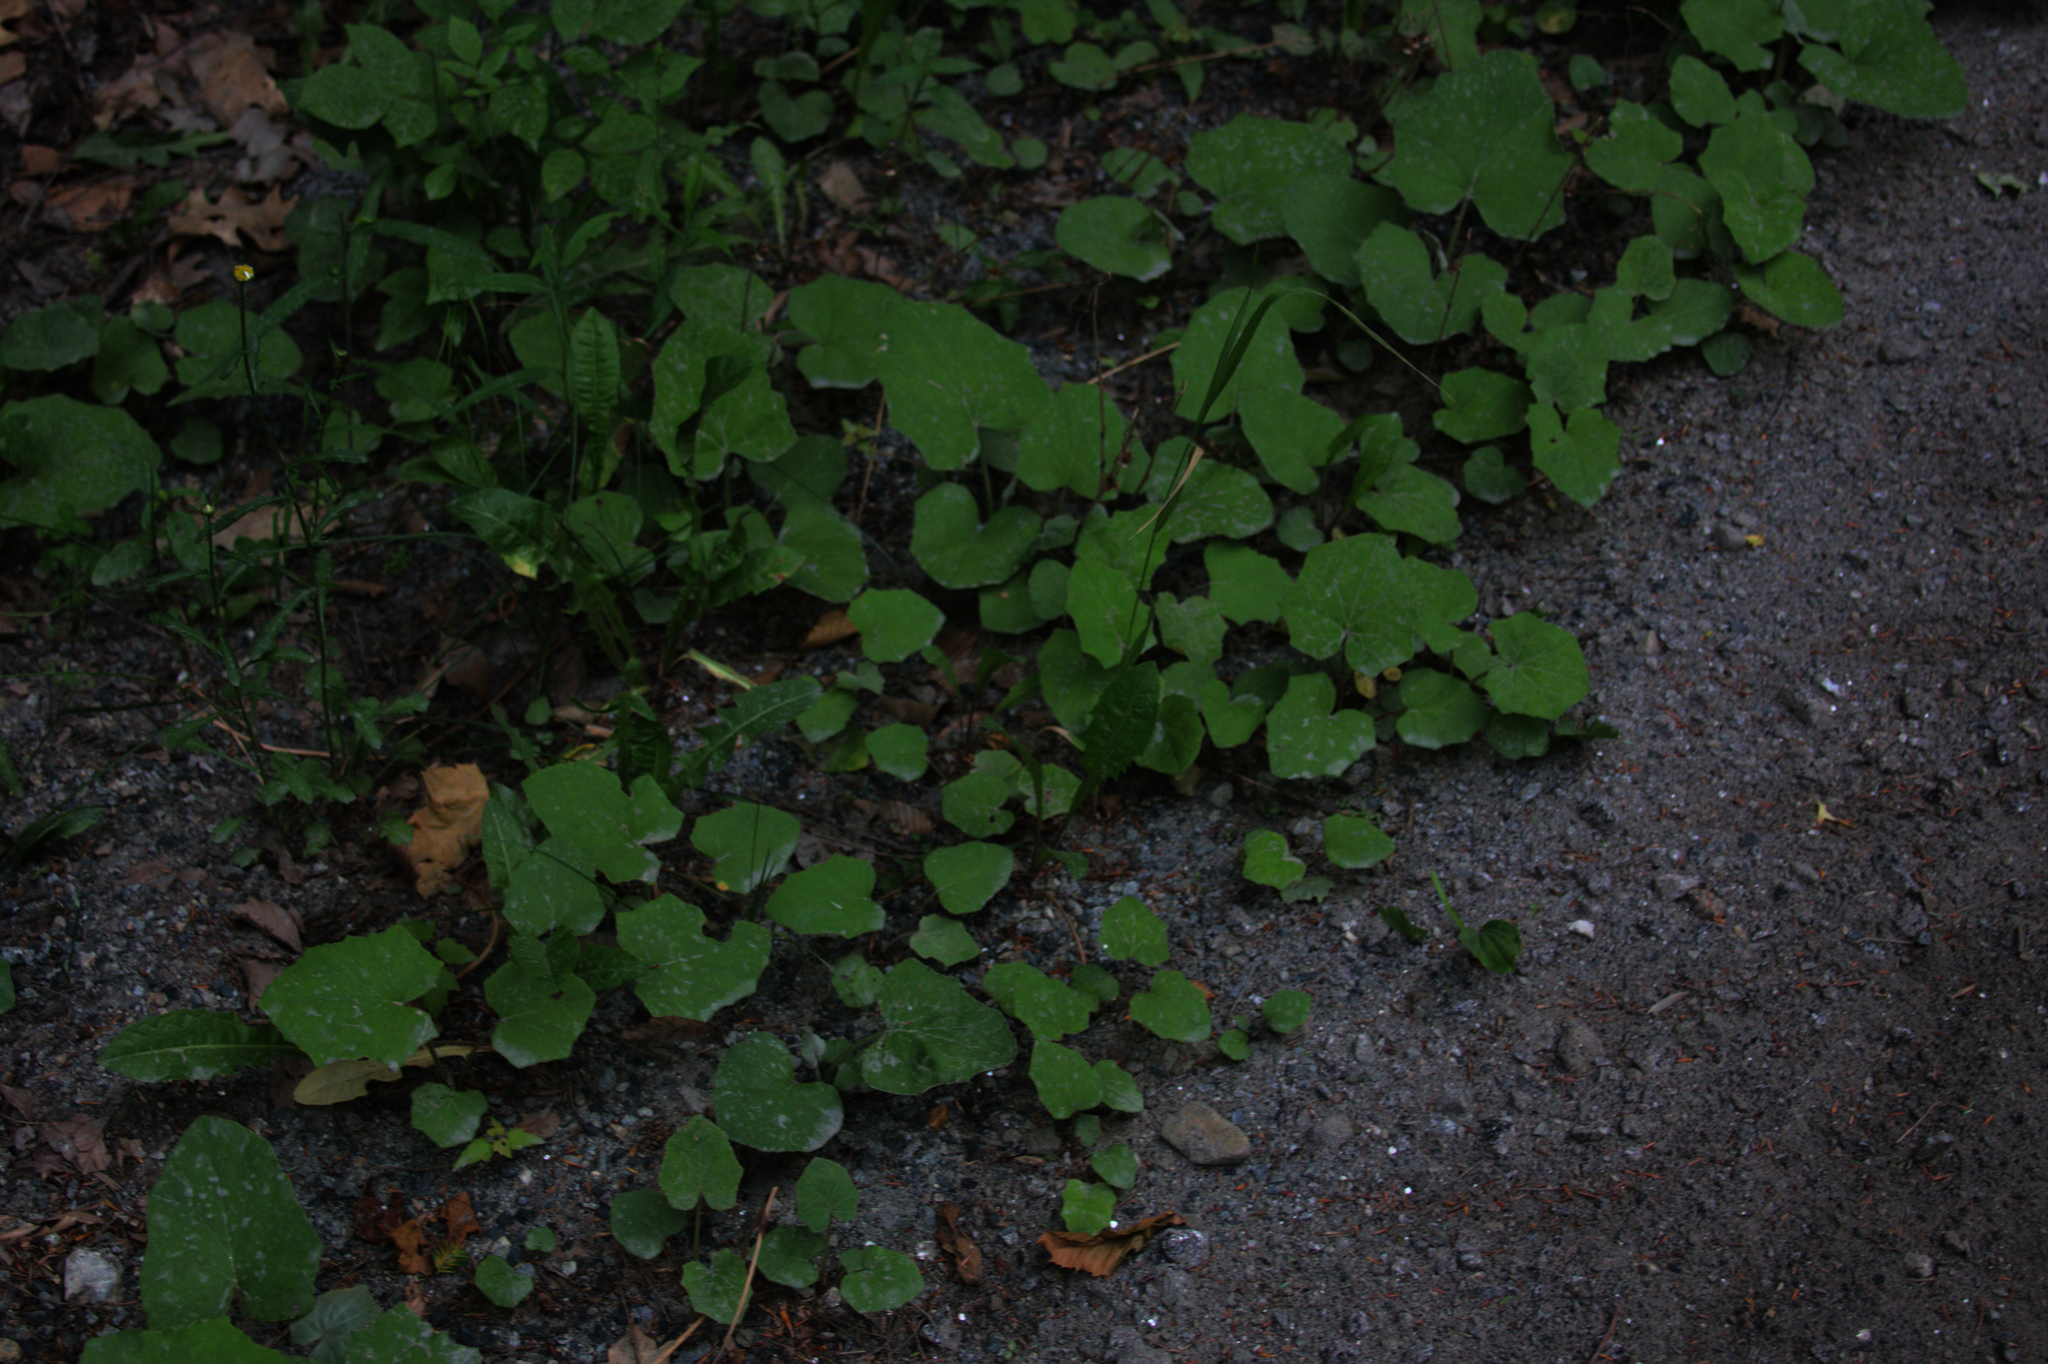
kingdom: Plantae
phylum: Tracheophyta
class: Magnoliopsida
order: Asterales
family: Asteraceae
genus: Tussilago
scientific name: Tussilago farfara
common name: Coltsfoot
